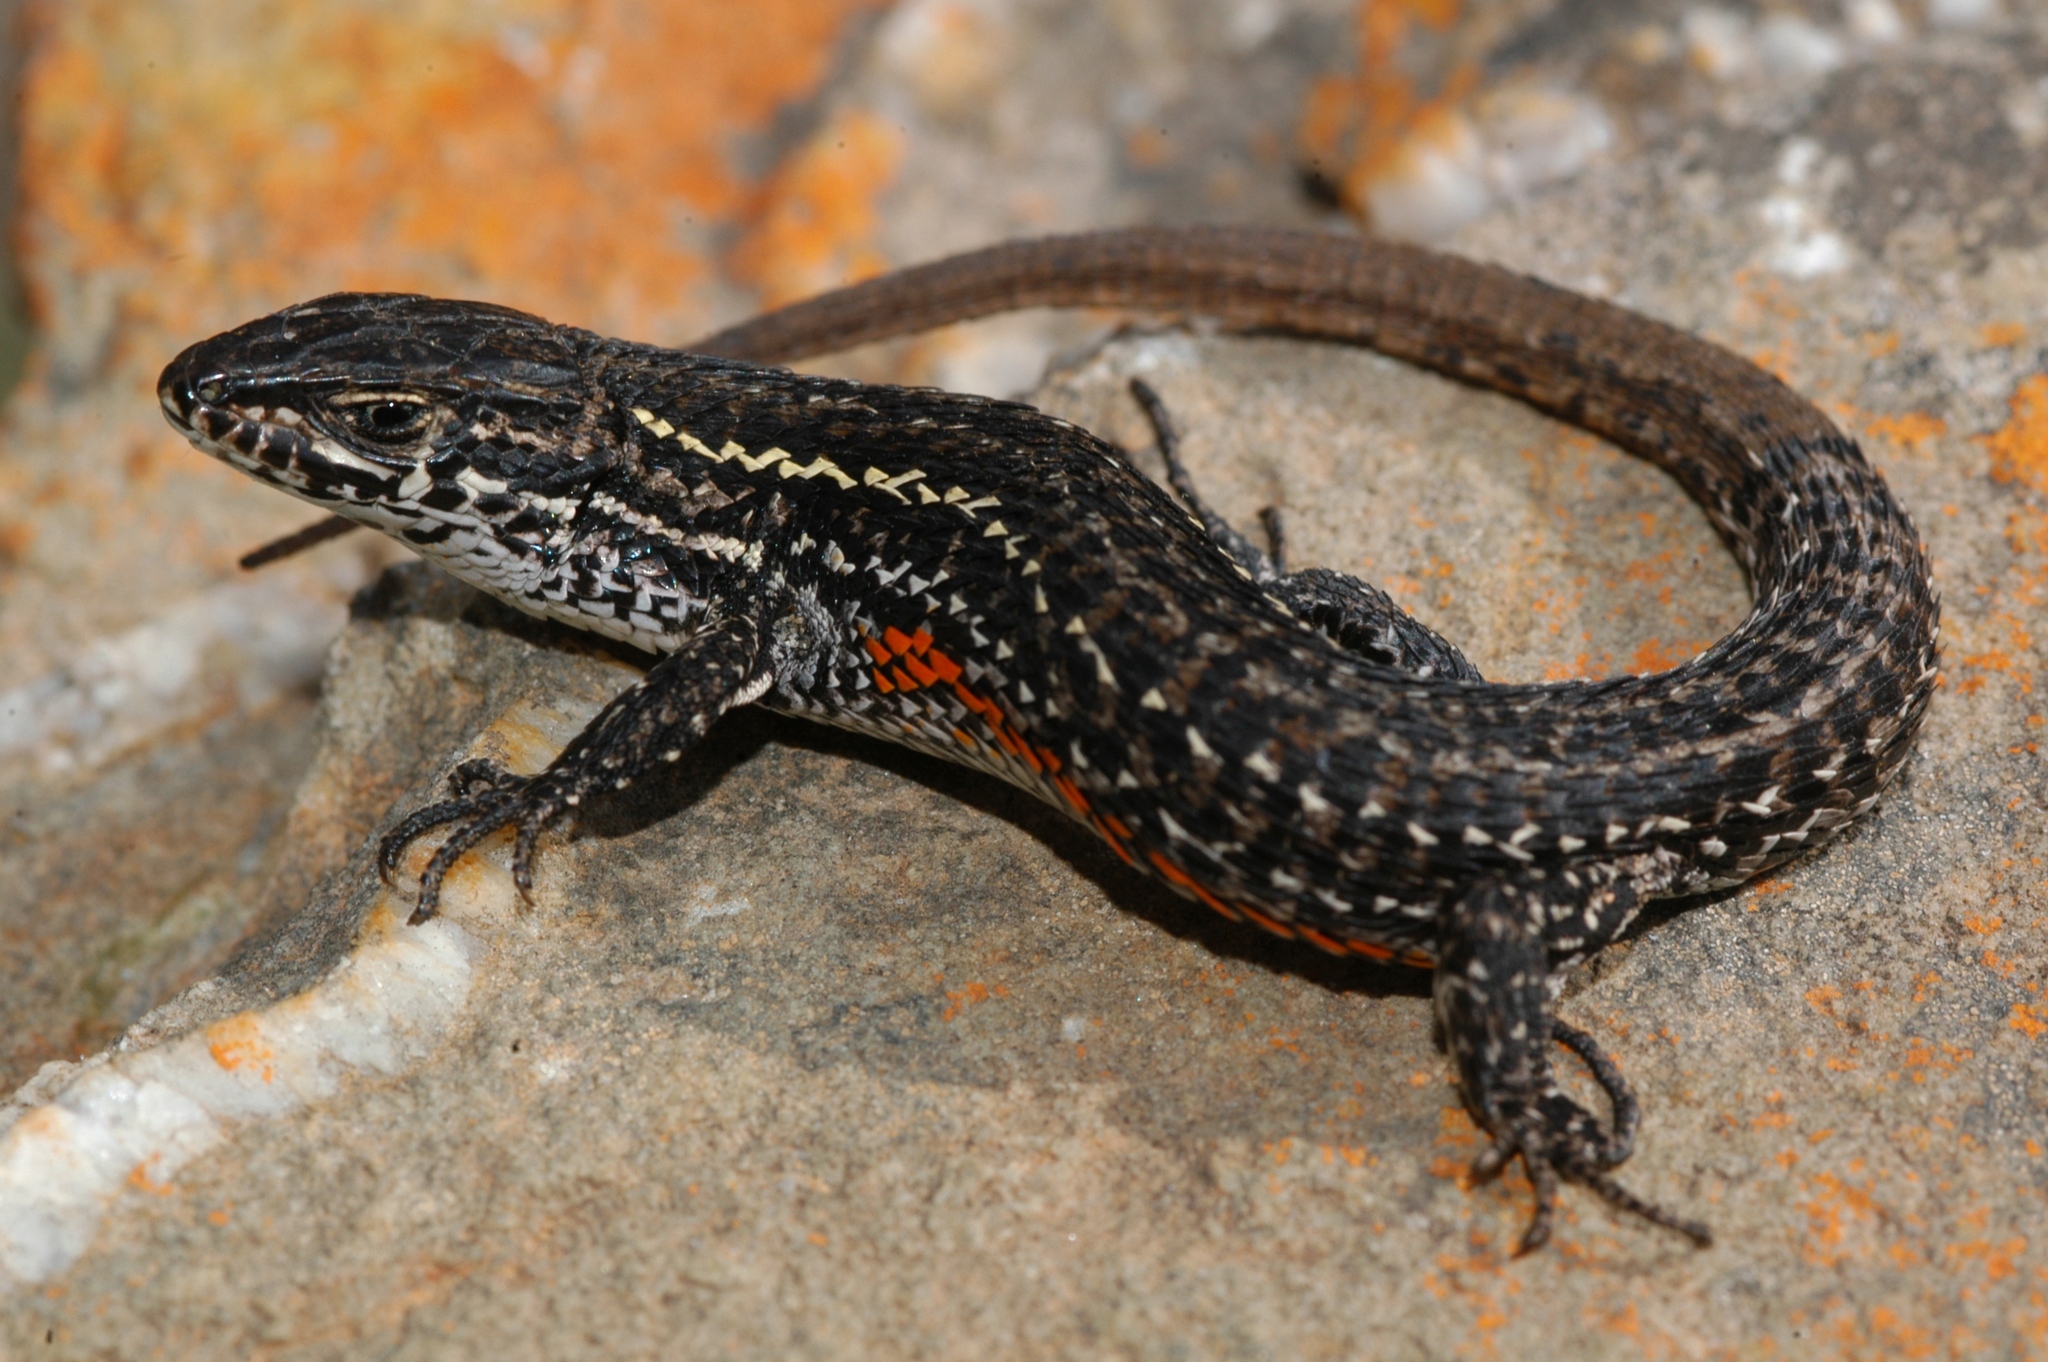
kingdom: Animalia
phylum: Chordata
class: Squamata
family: Lacertidae
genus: Tropidosaura
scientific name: Tropidosaura montana
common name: Green-striped mountain lizard
